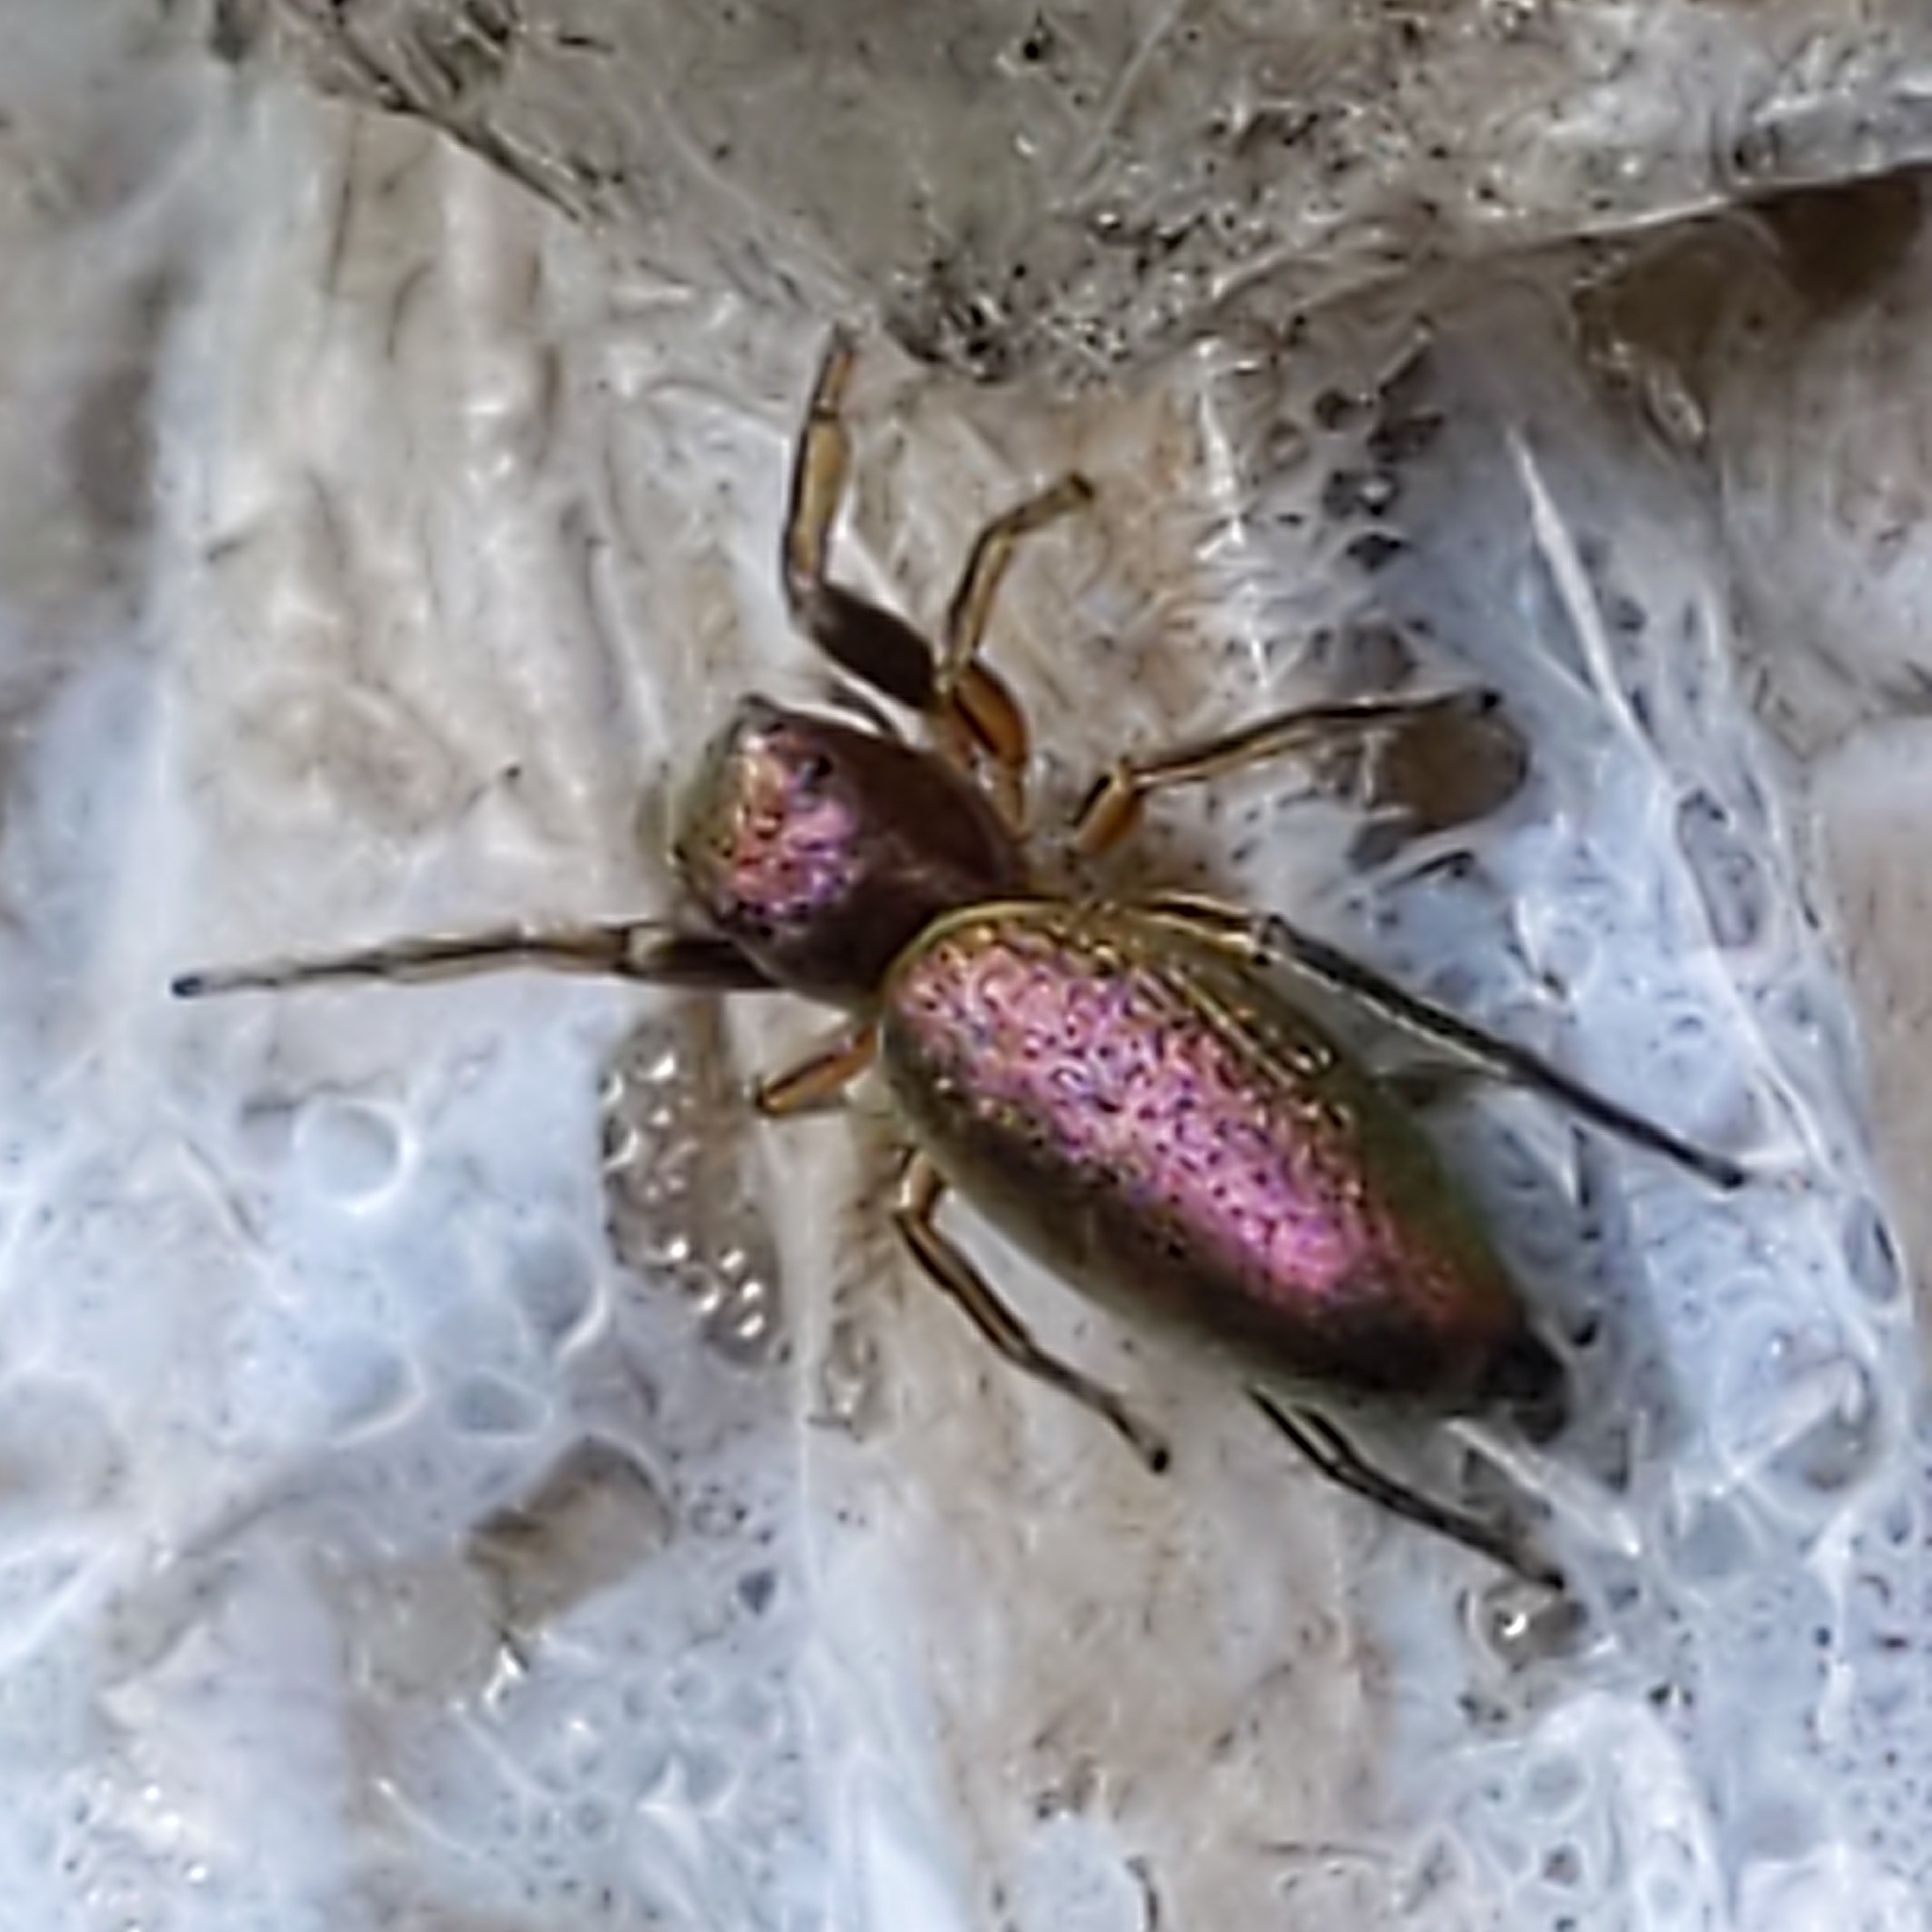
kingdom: Animalia
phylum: Arthropoda
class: Arachnida
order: Araneae
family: Salticidae
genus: Tutelina
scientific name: Tutelina elegans
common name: Thin-spined jumping spider
